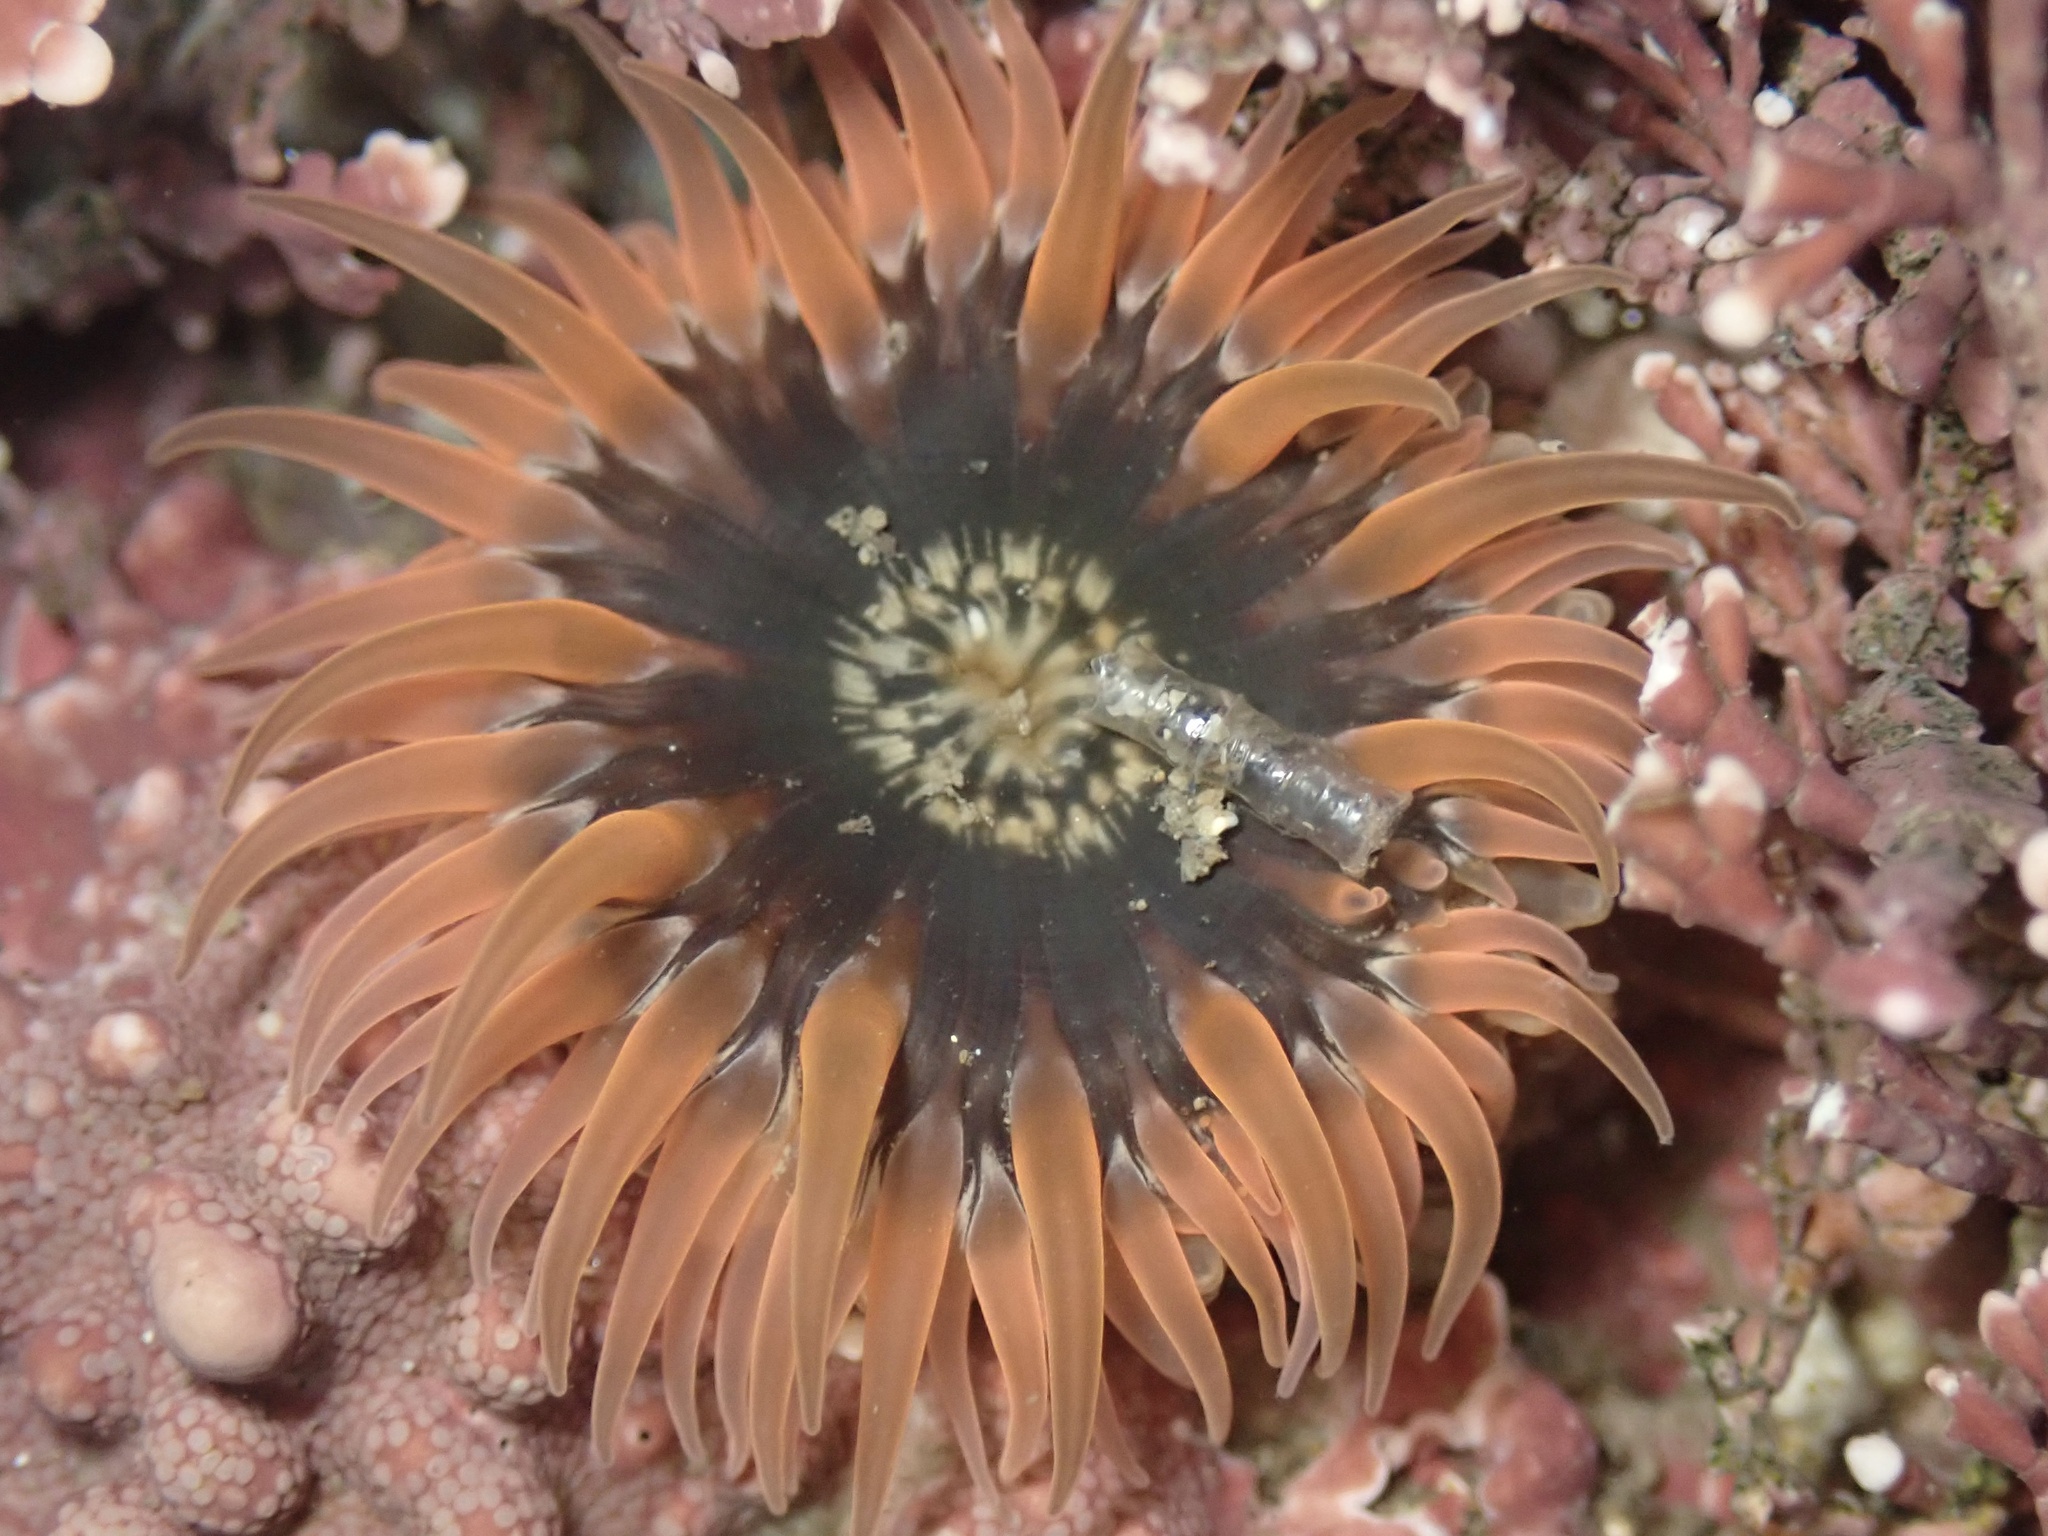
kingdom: Animalia
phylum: Cnidaria
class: Anthozoa
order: Actiniaria
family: Actiniidae
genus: Anthopleura
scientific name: Anthopleura artemisia
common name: Buried sea anemone
